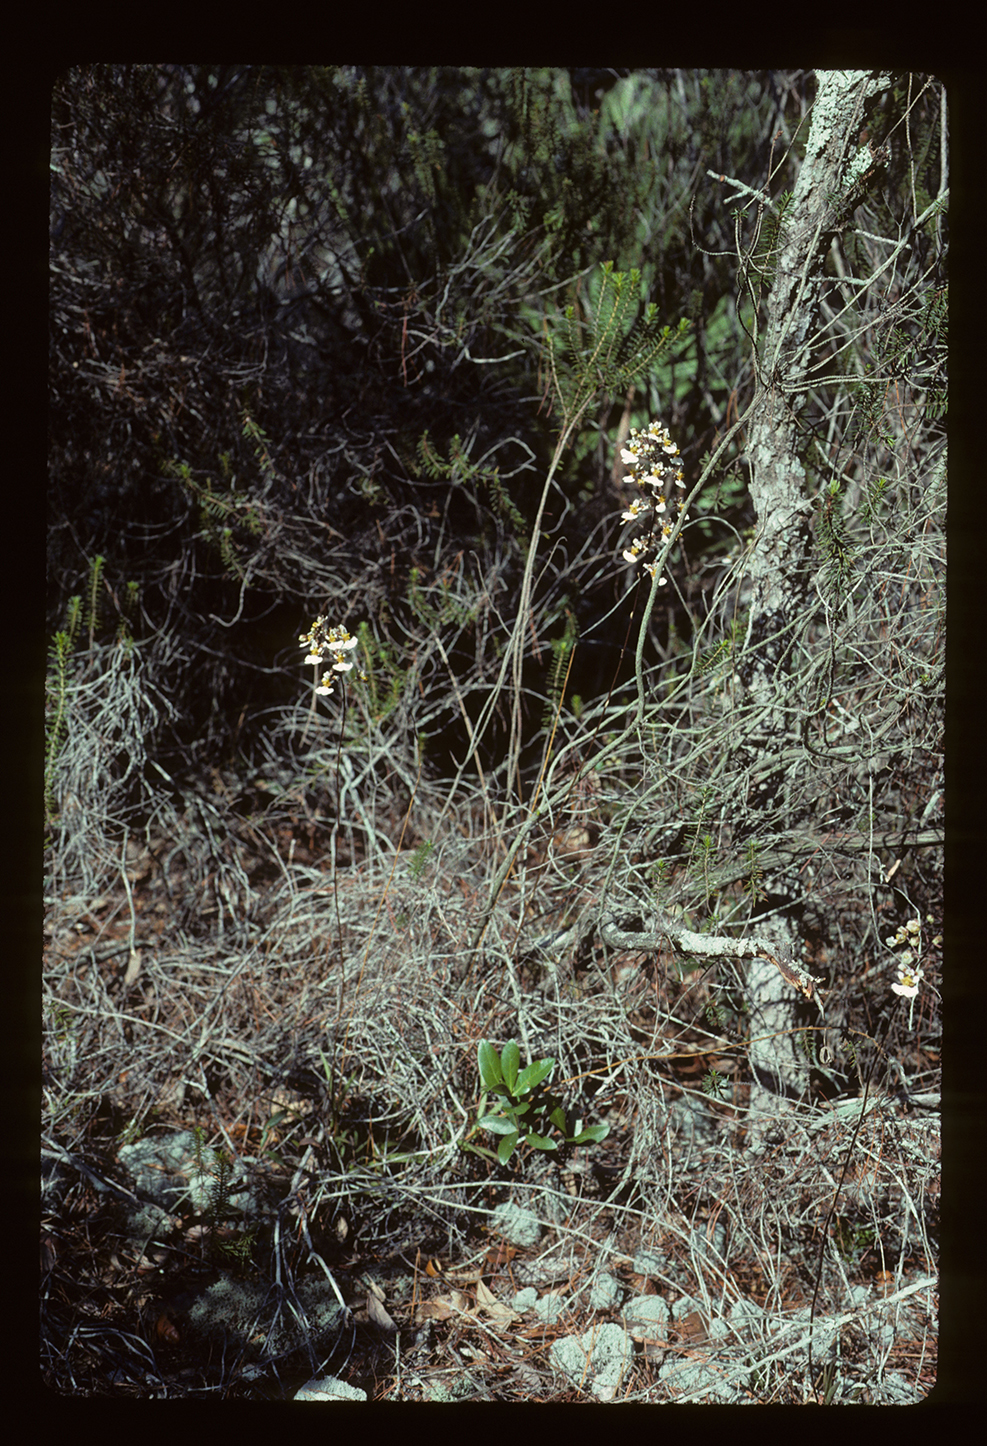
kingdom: Plantae
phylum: Tracheophyta
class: Liliopsida
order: Asparagales
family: Orchidaceae
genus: Tolumnia
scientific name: Tolumnia bahamensis
